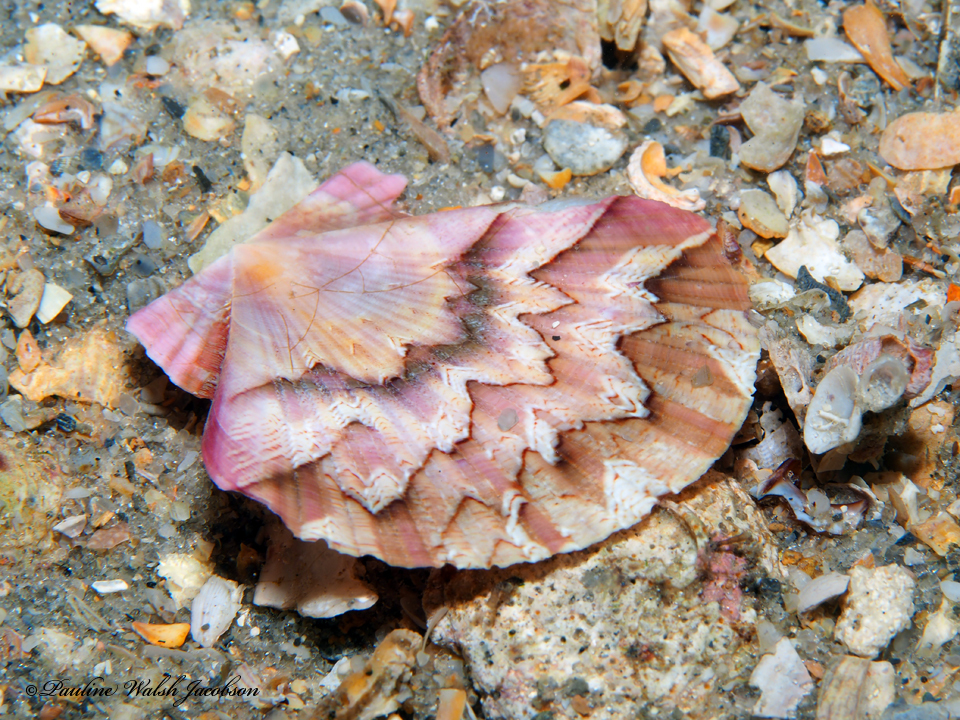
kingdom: Animalia
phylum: Mollusca
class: Bivalvia
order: Pectinida
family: Pectinidae
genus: Euvola
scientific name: Euvola ziczac
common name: Zigzag scallop
